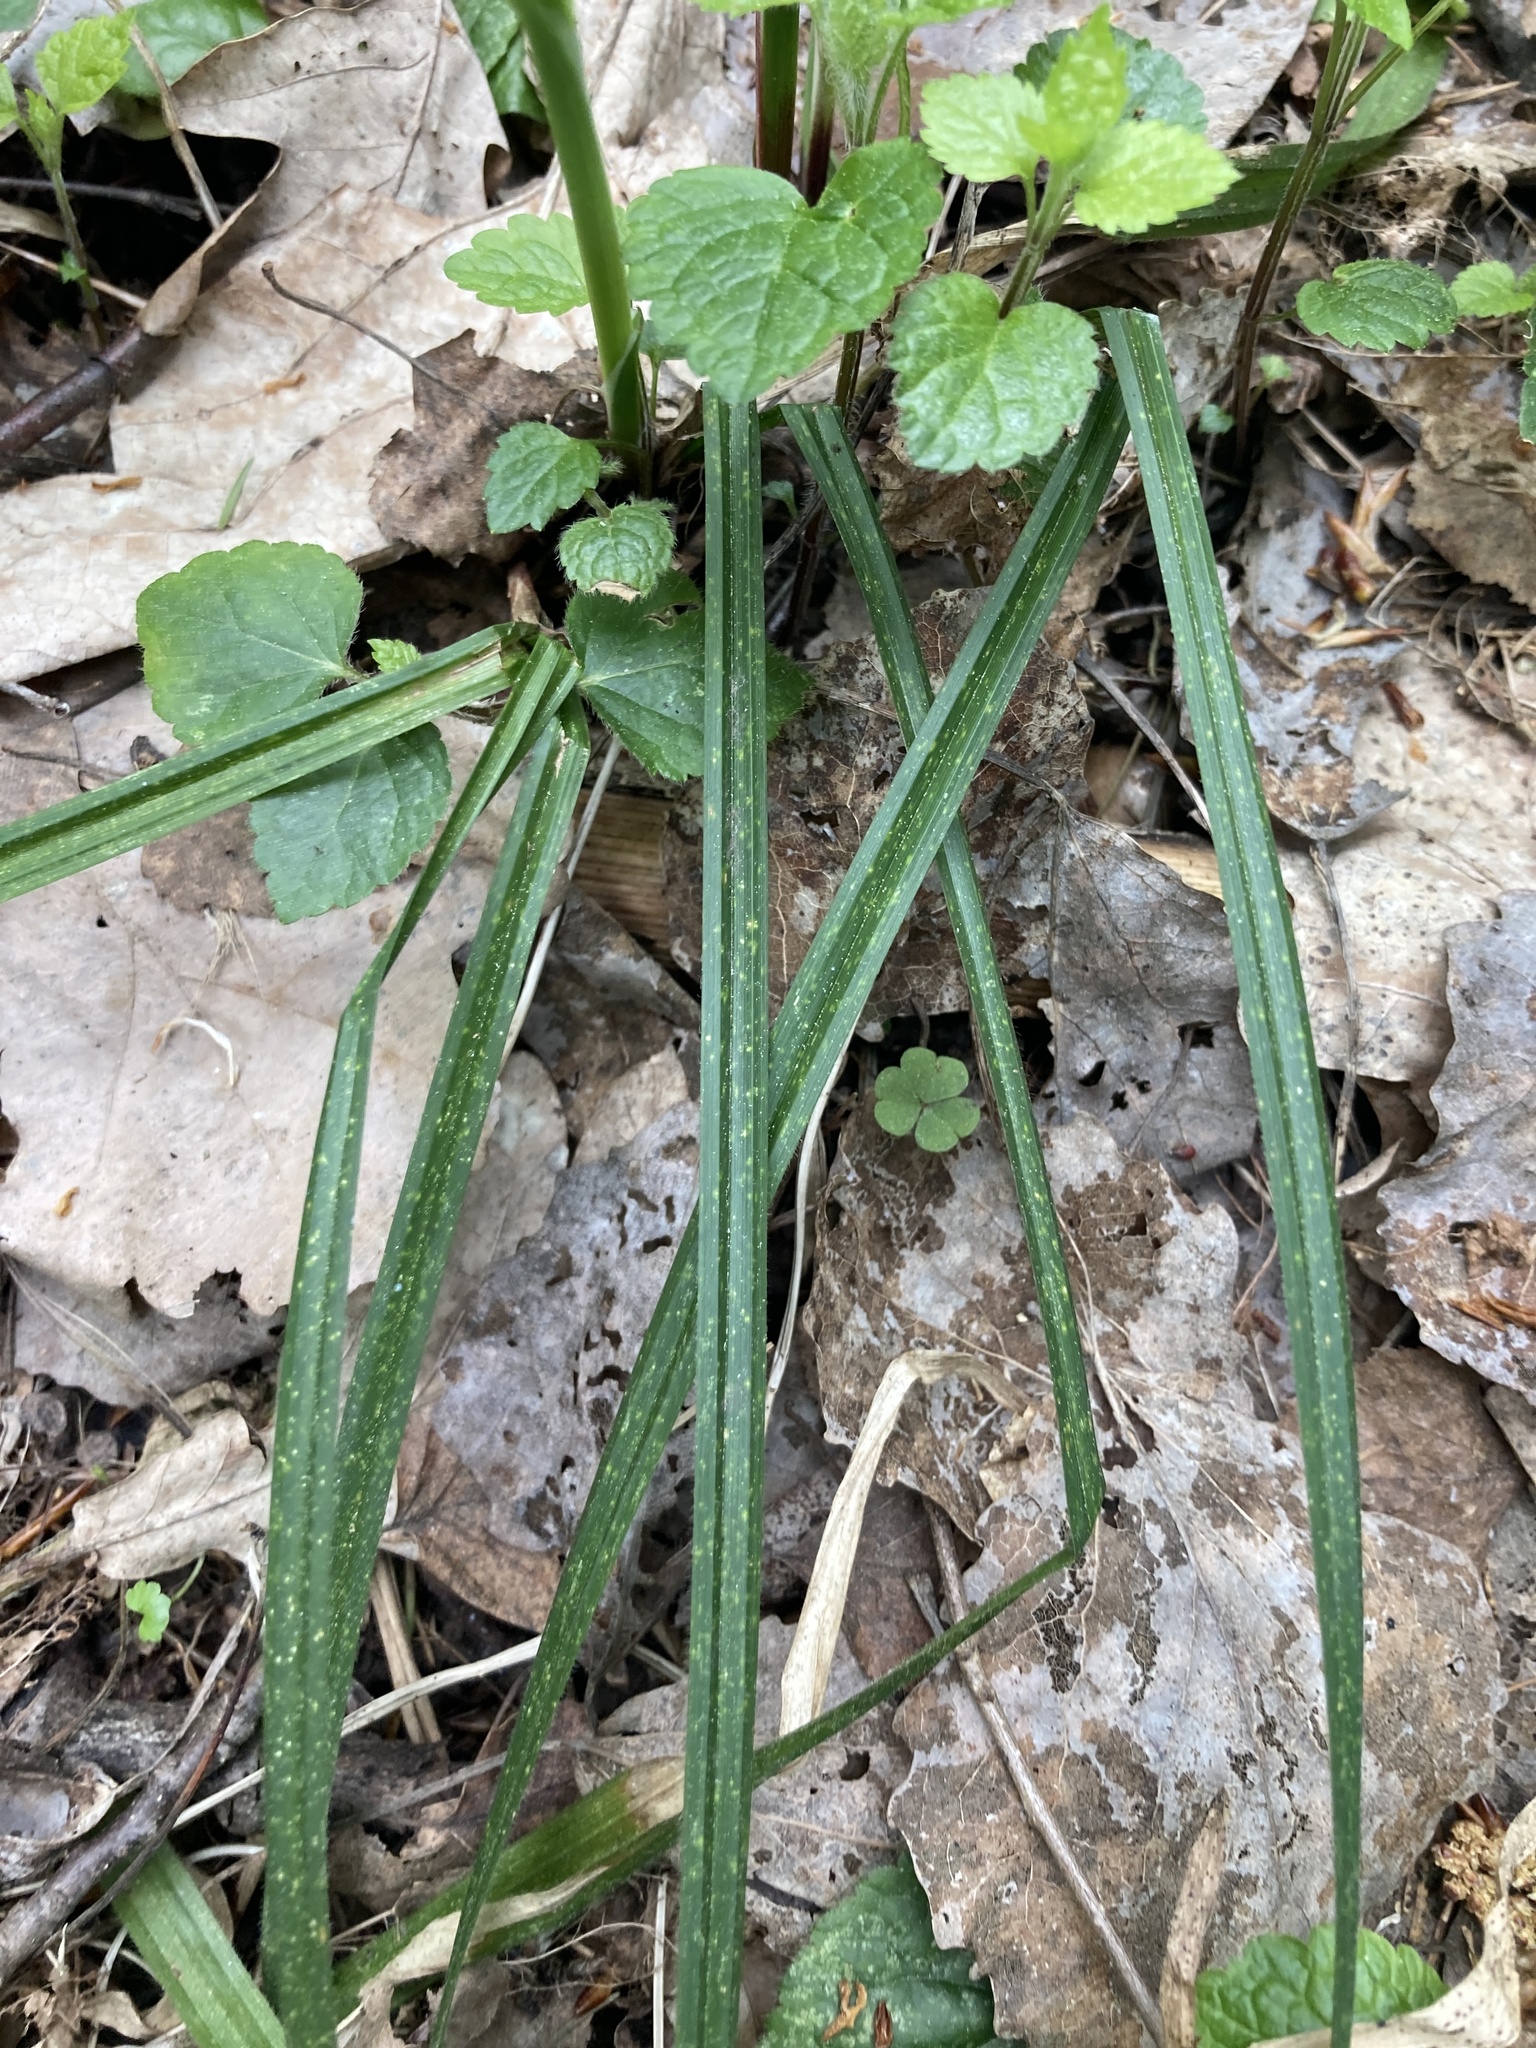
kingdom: Plantae
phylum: Tracheophyta
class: Liliopsida
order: Poales
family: Cyperaceae
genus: Carex
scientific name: Carex pilosa
